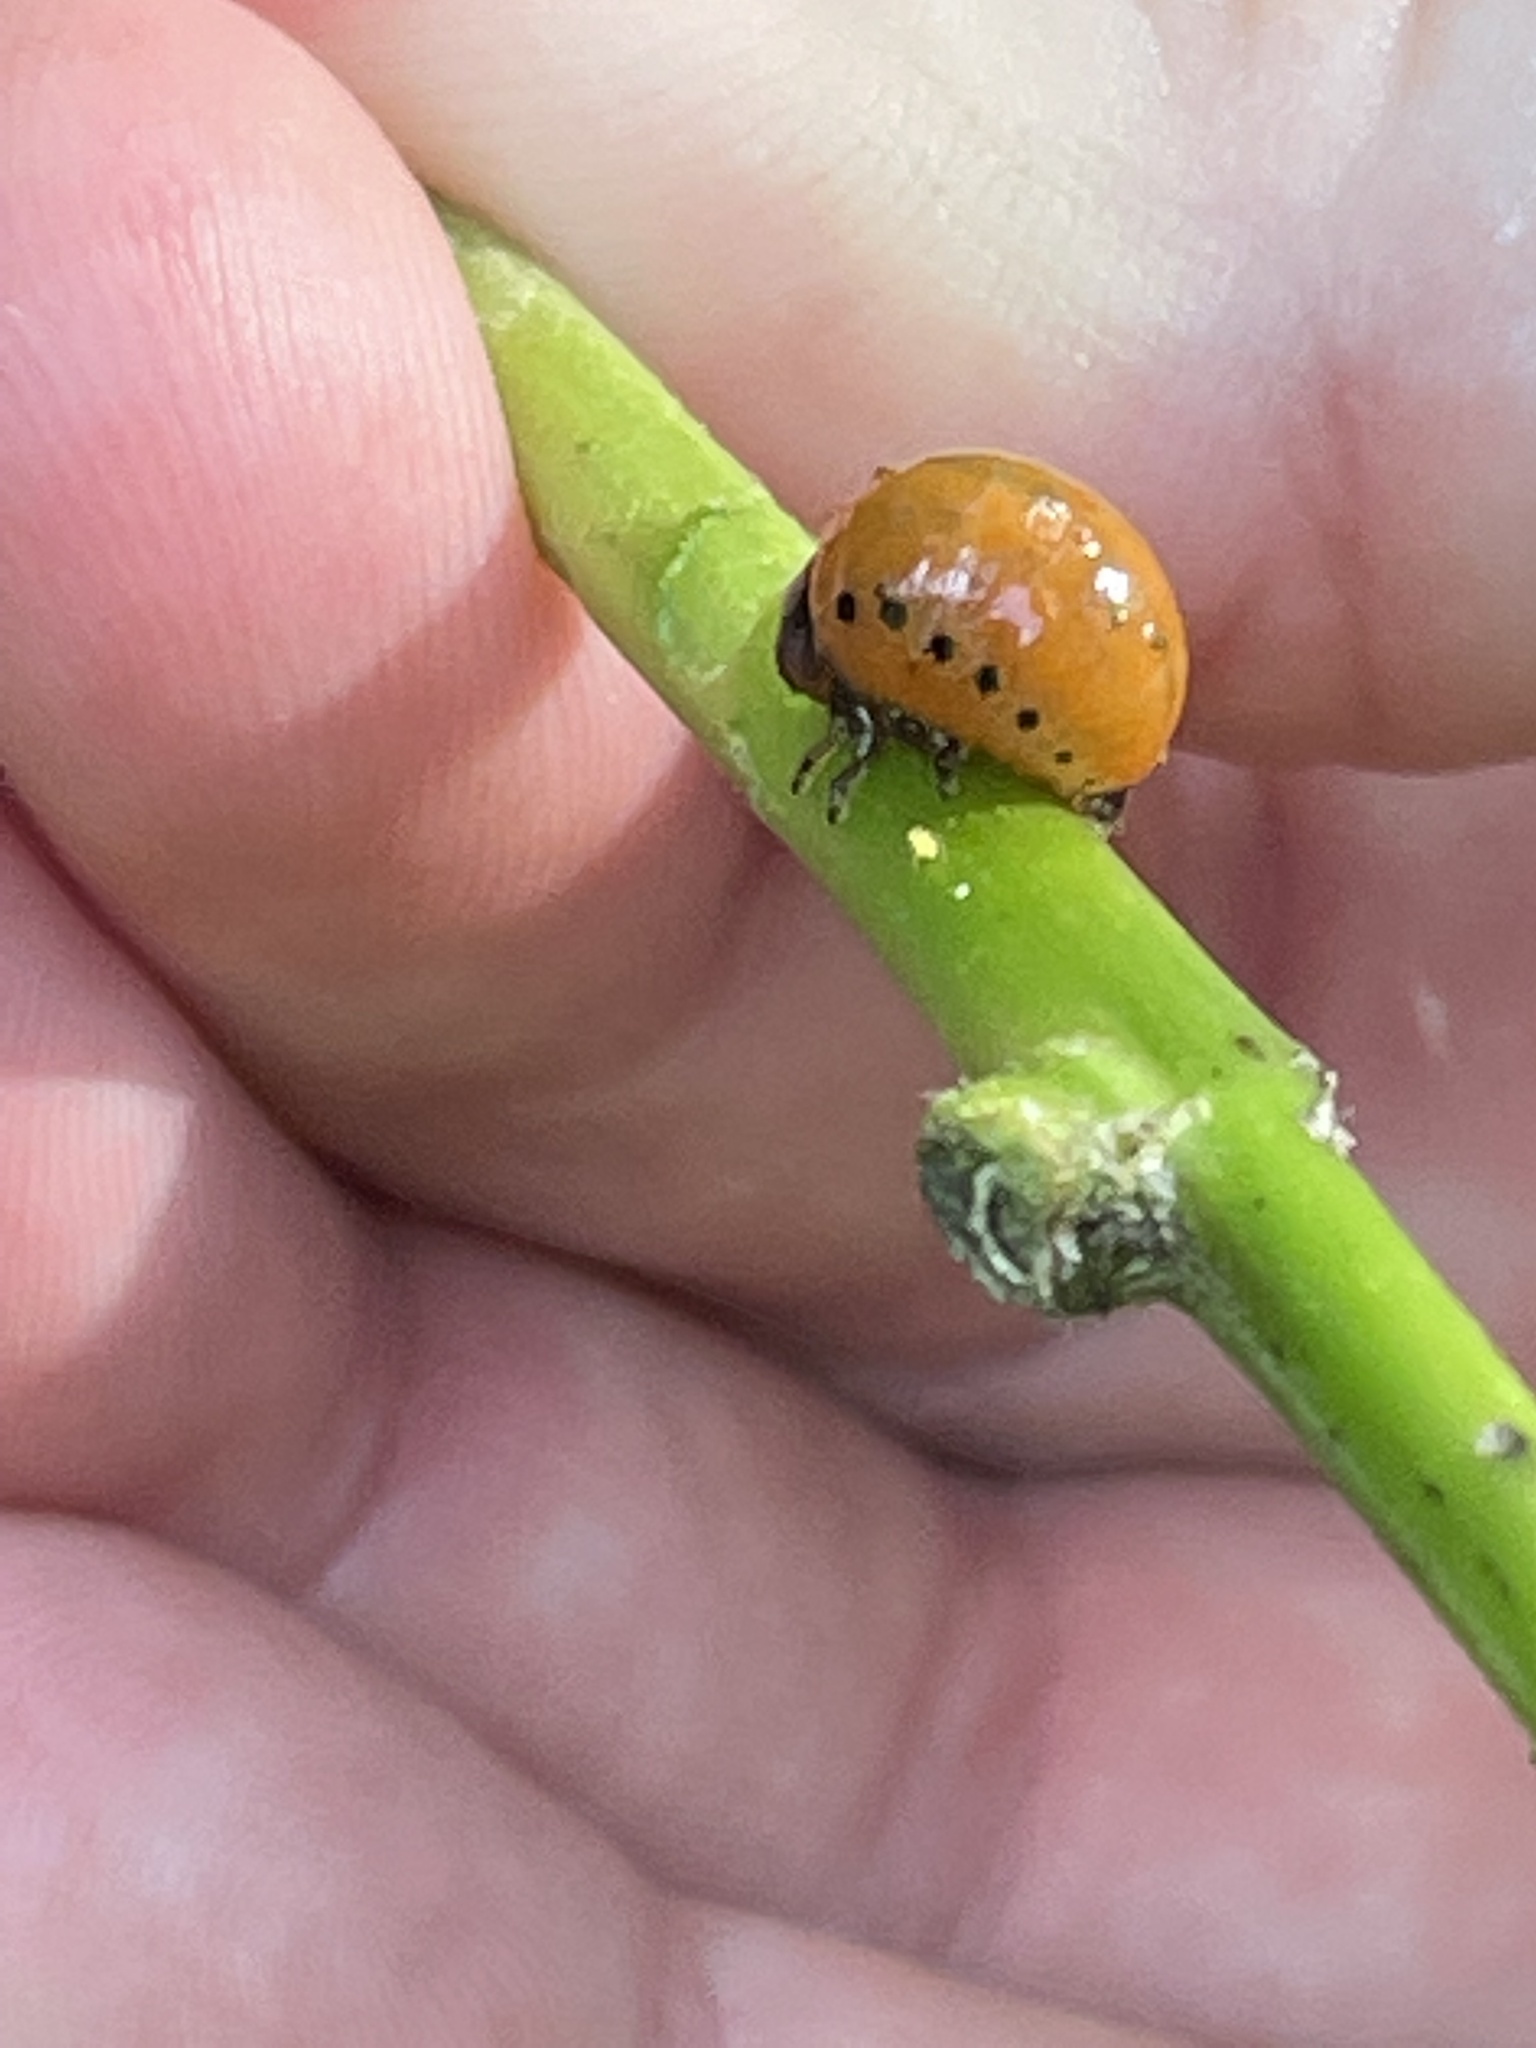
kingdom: Animalia
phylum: Arthropoda
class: Insecta
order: Coleoptera
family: Chrysomelidae
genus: Labidomera
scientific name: Labidomera clivicollis
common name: Swamp milkweed leaf beetle
